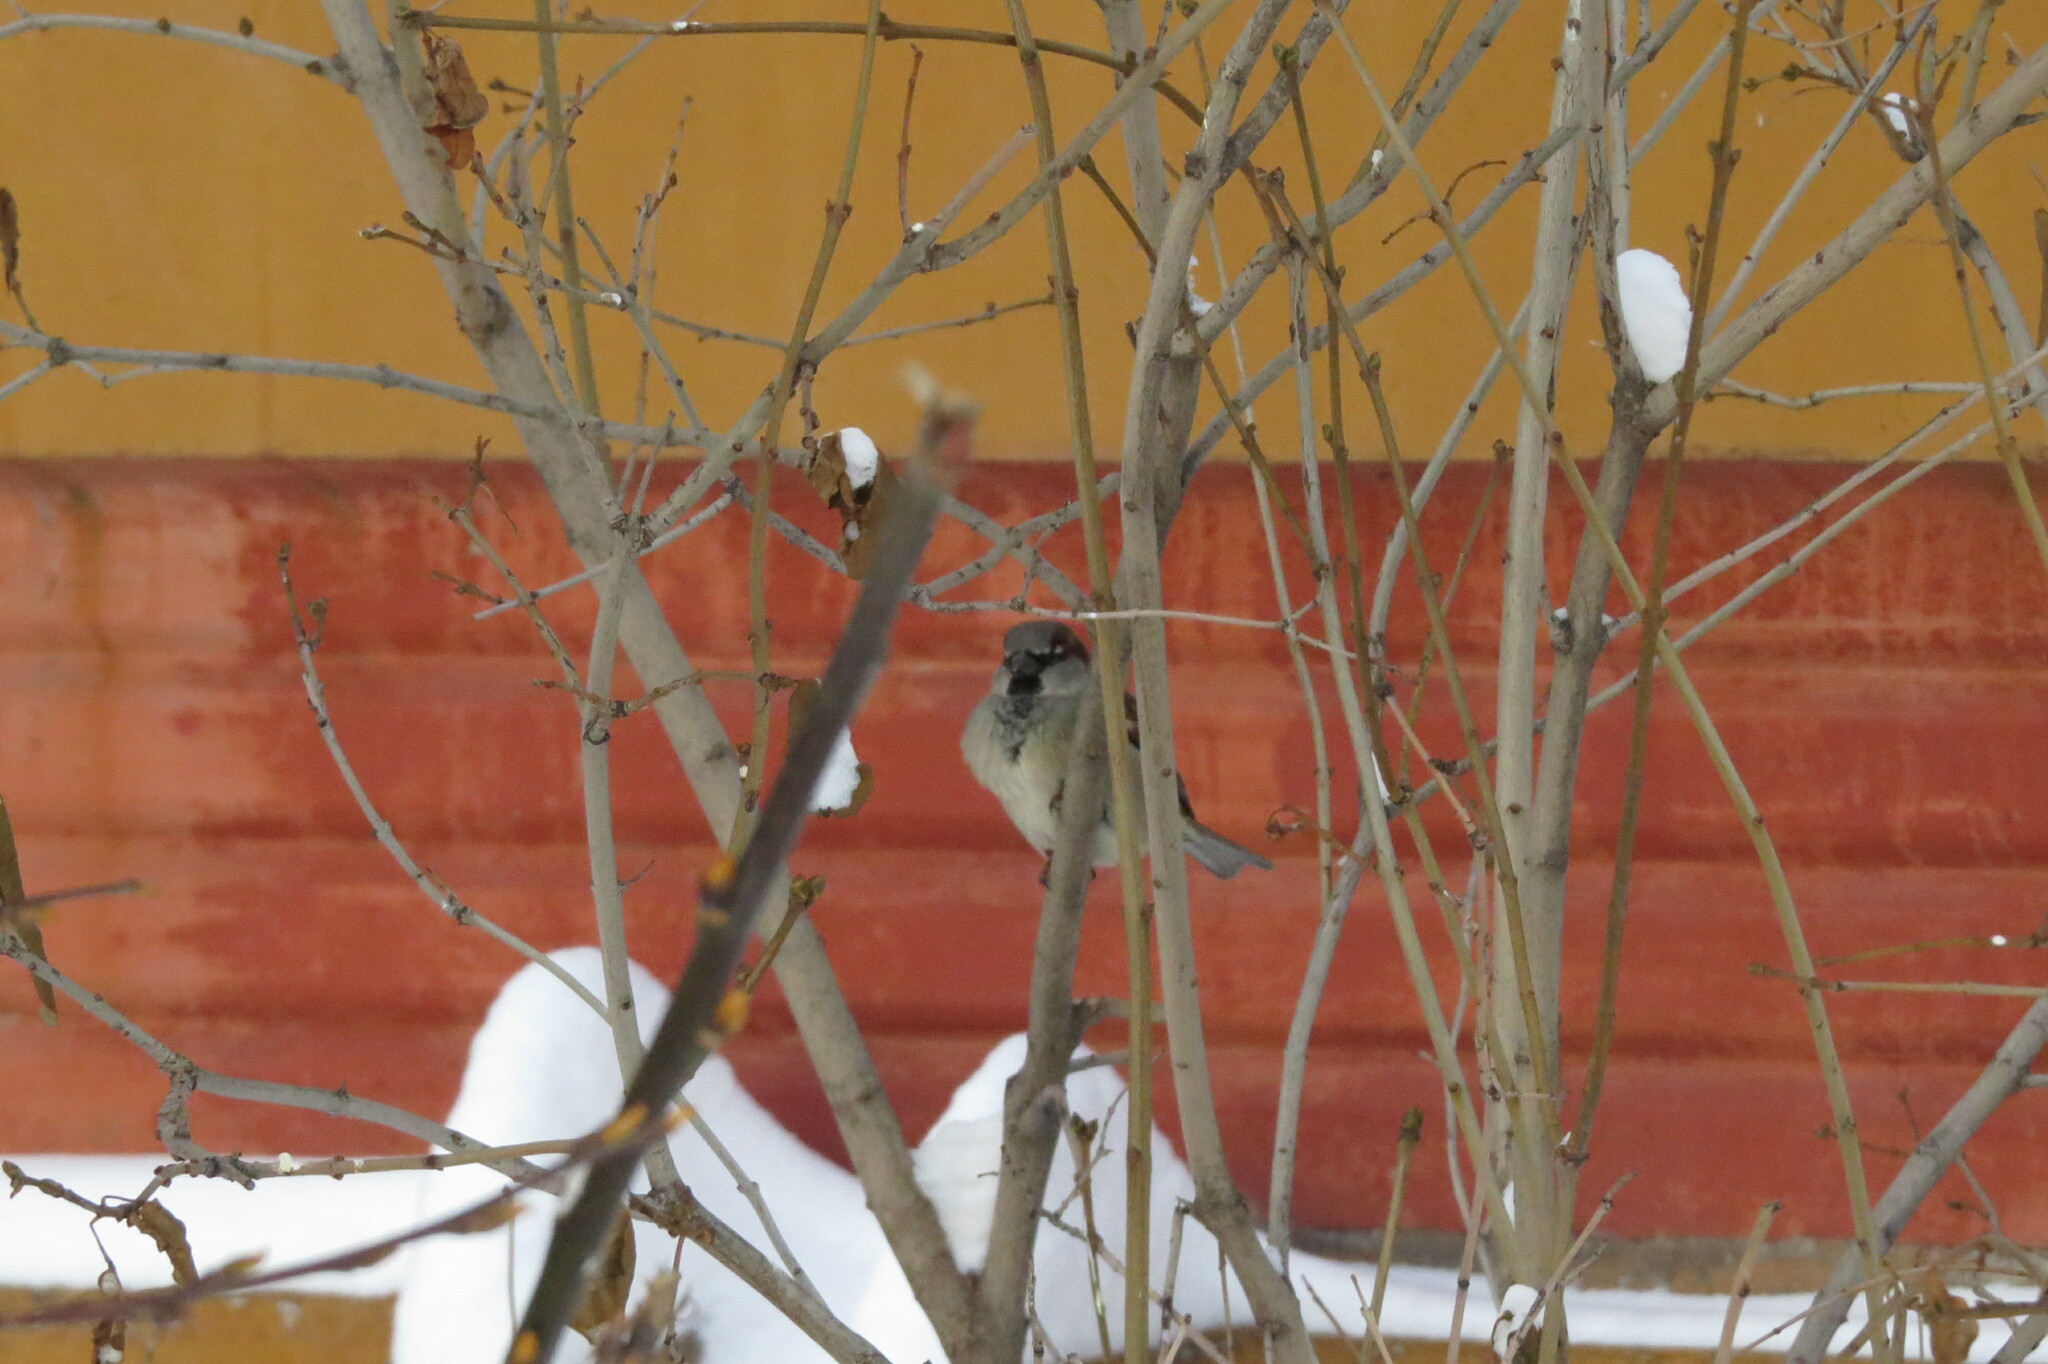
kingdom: Animalia
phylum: Chordata
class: Aves
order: Passeriformes
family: Passeridae
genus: Passer
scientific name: Passer domesticus
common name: House sparrow
